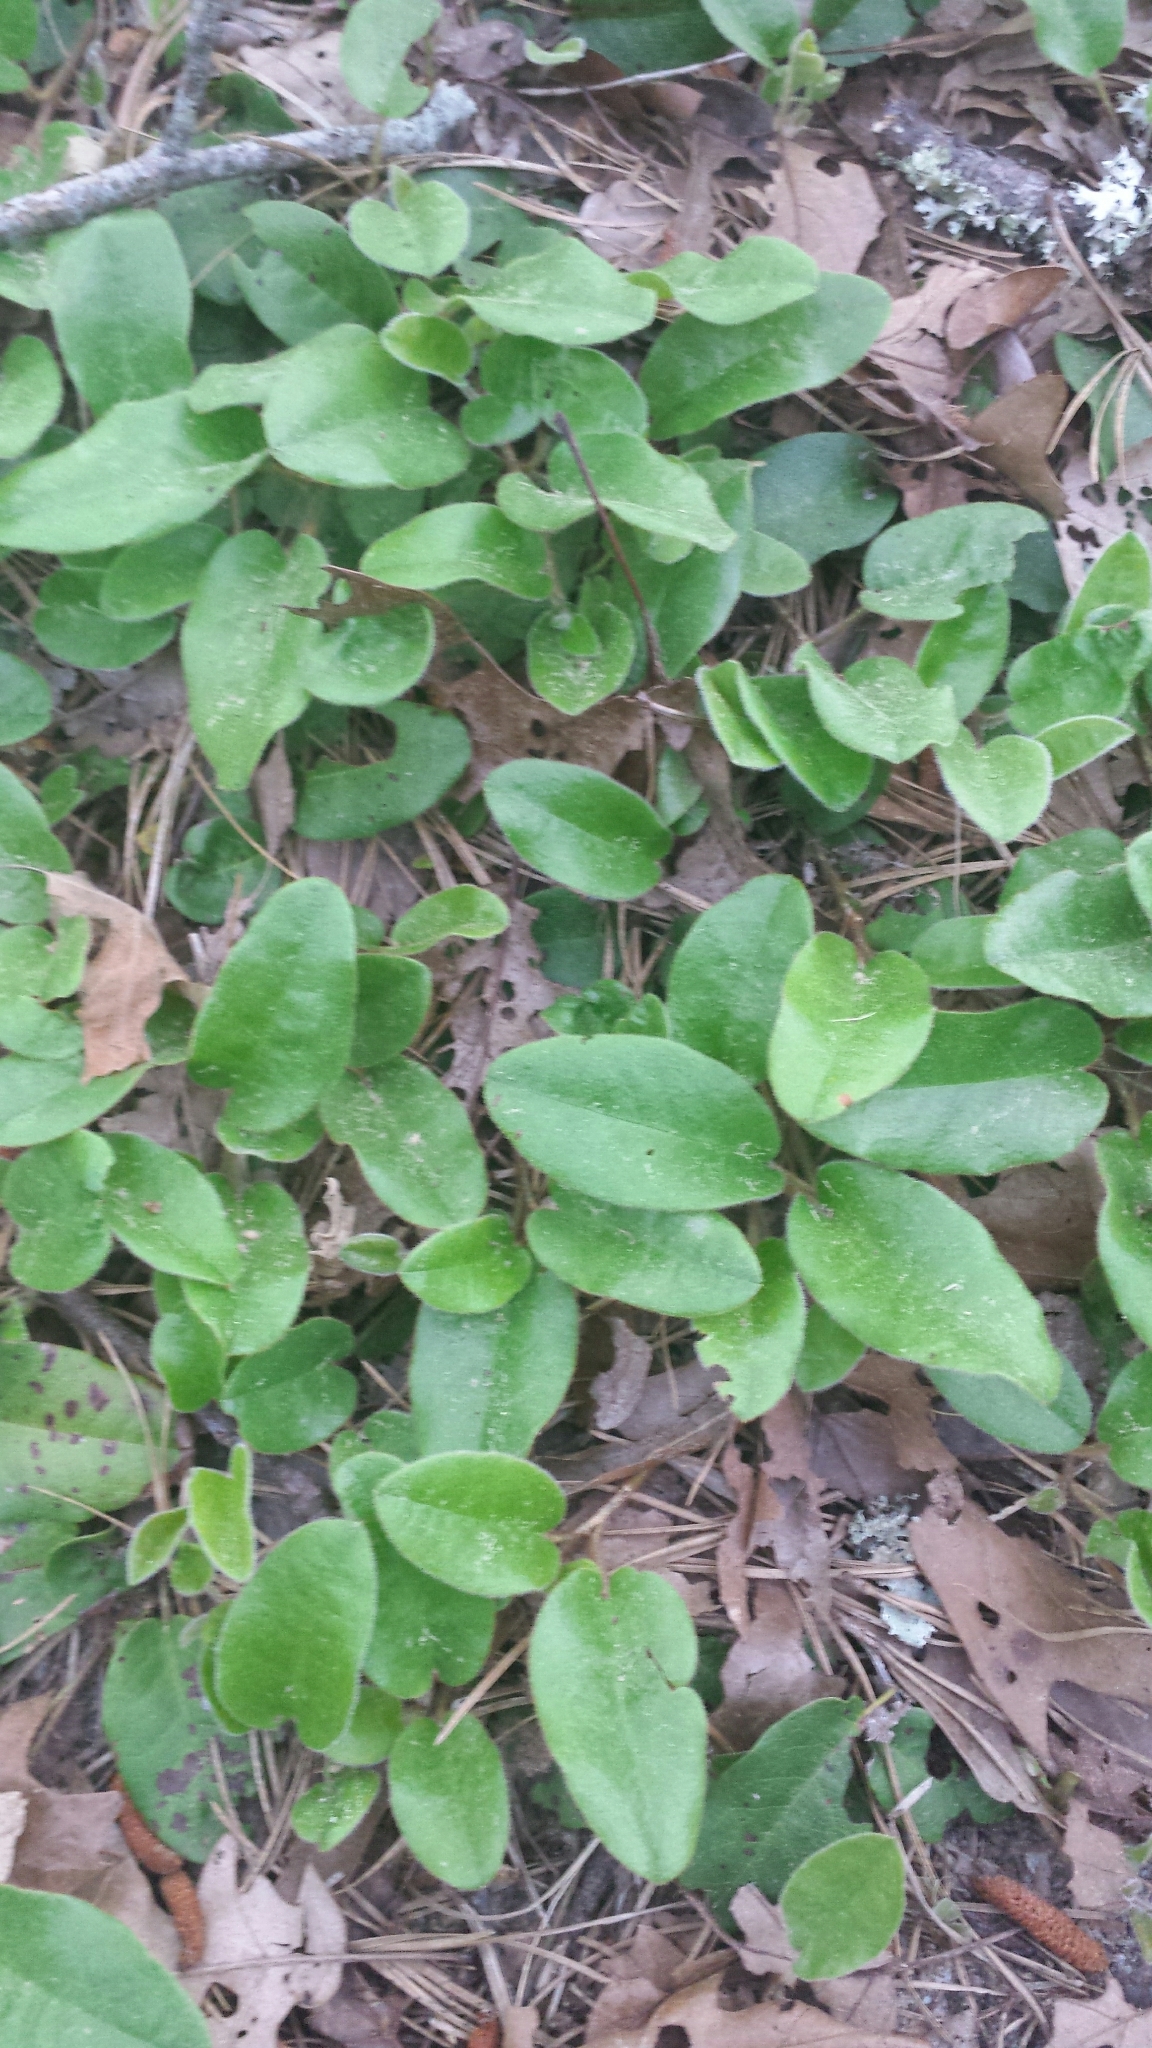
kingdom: Plantae
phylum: Tracheophyta
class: Magnoliopsida
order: Ericales
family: Ericaceae
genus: Epigaea
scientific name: Epigaea repens
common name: Gravelroot
